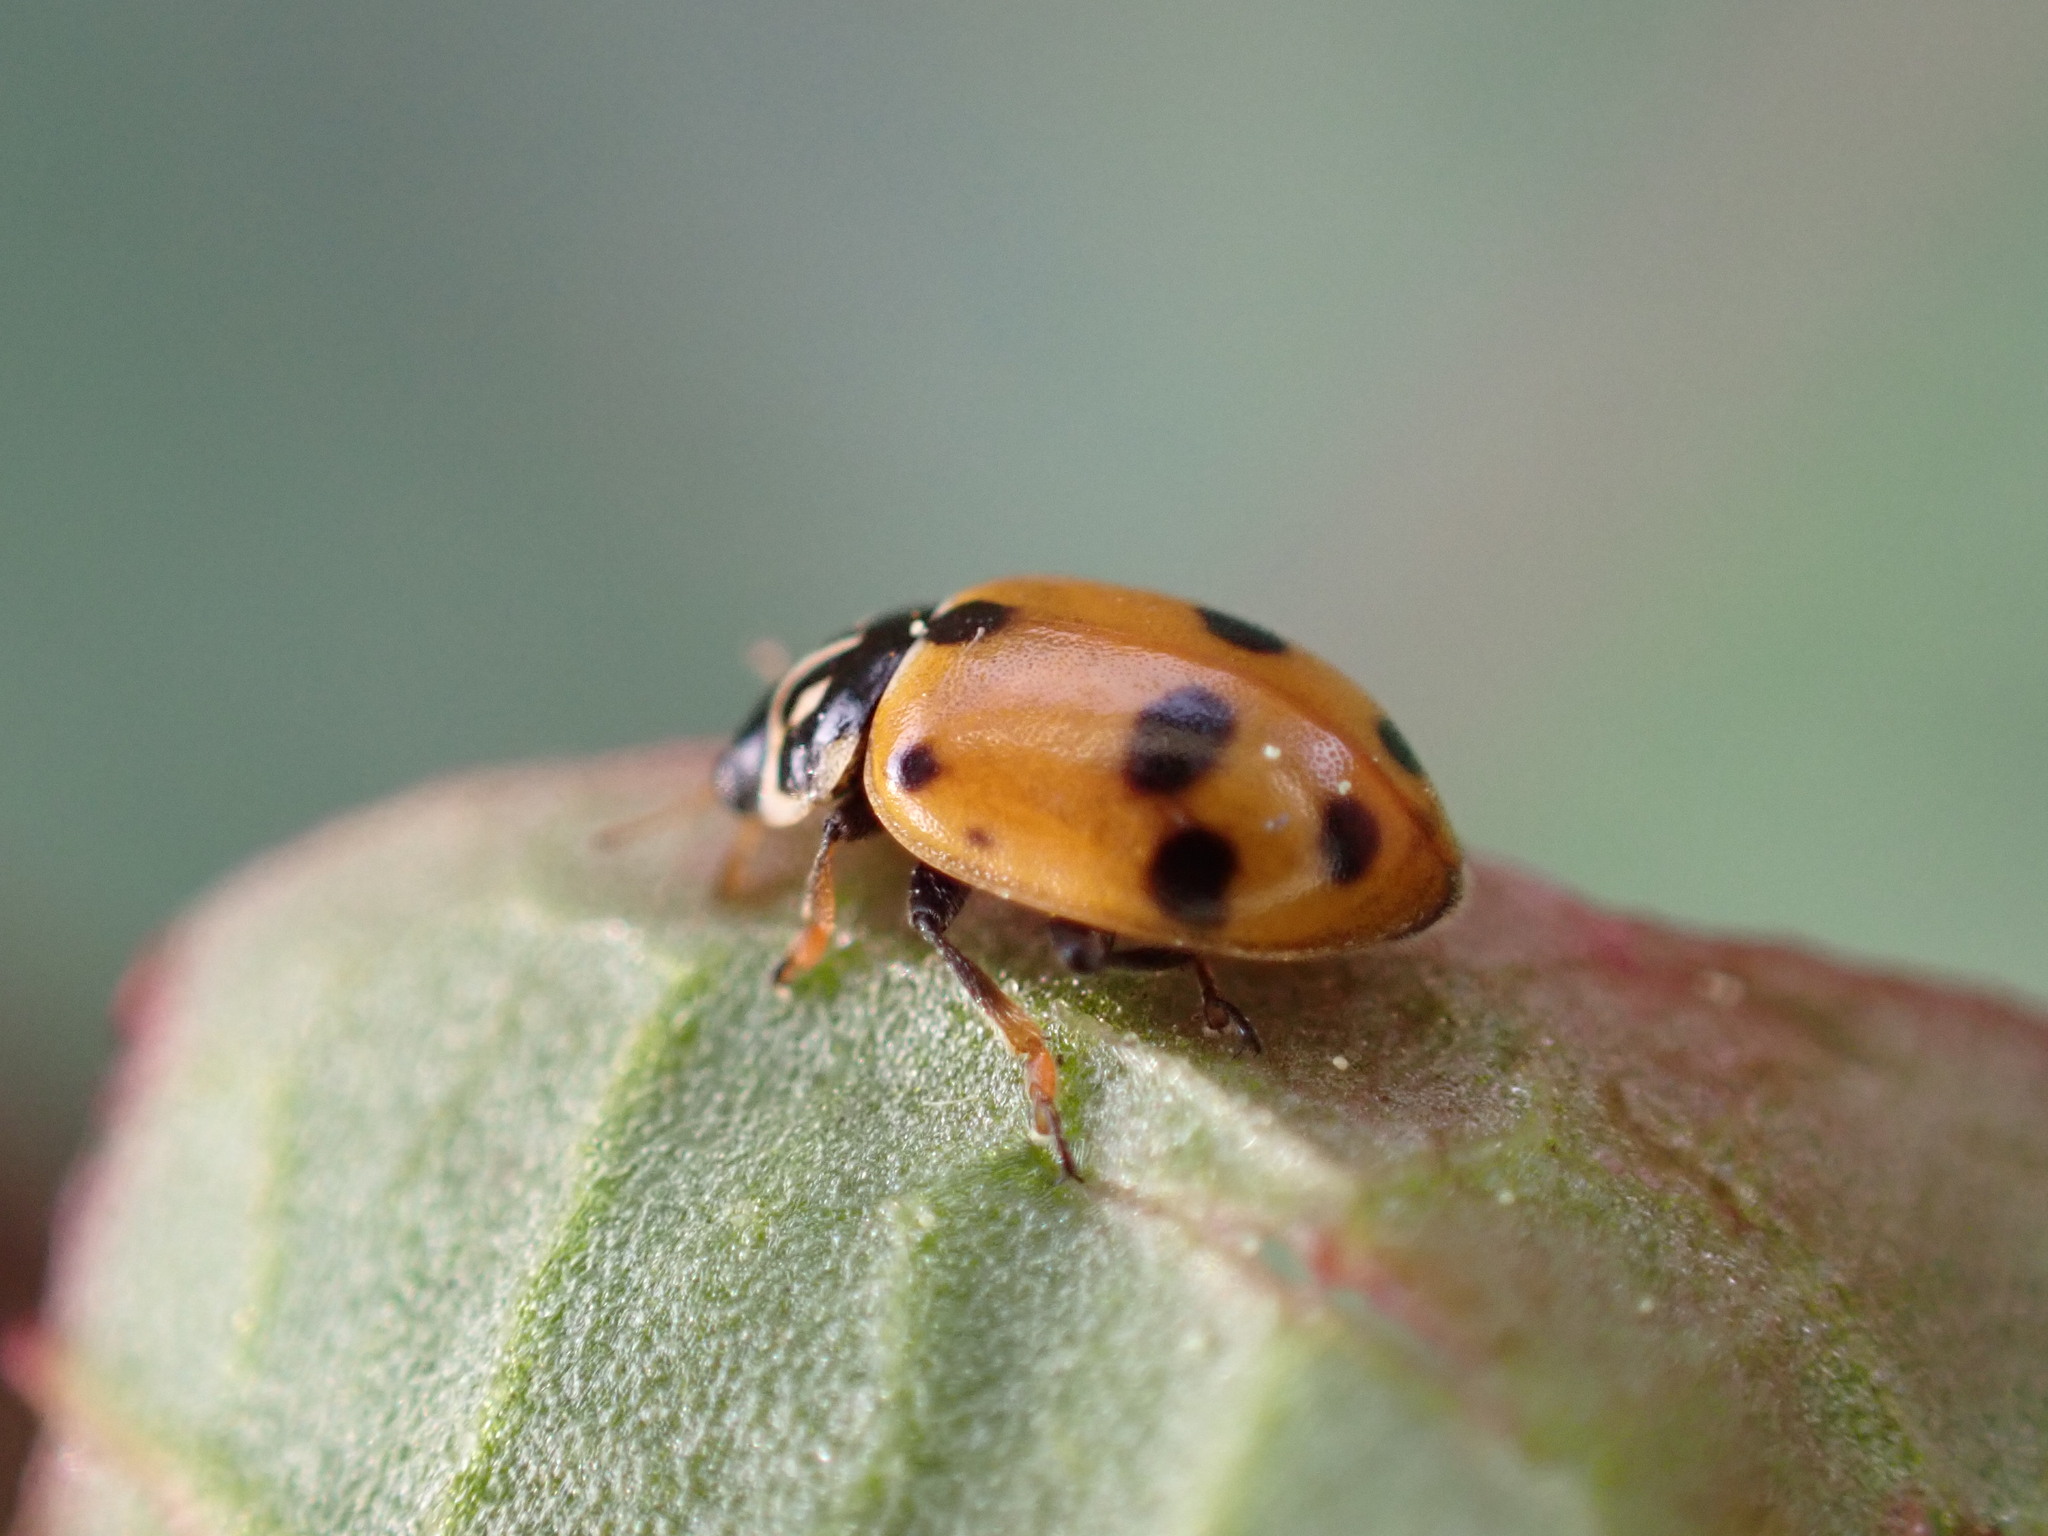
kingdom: Animalia
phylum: Arthropoda
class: Insecta
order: Coleoptera
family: Coccinellidae
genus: Hippodamia
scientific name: Hippodamia variegata
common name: Ladybird beetle
